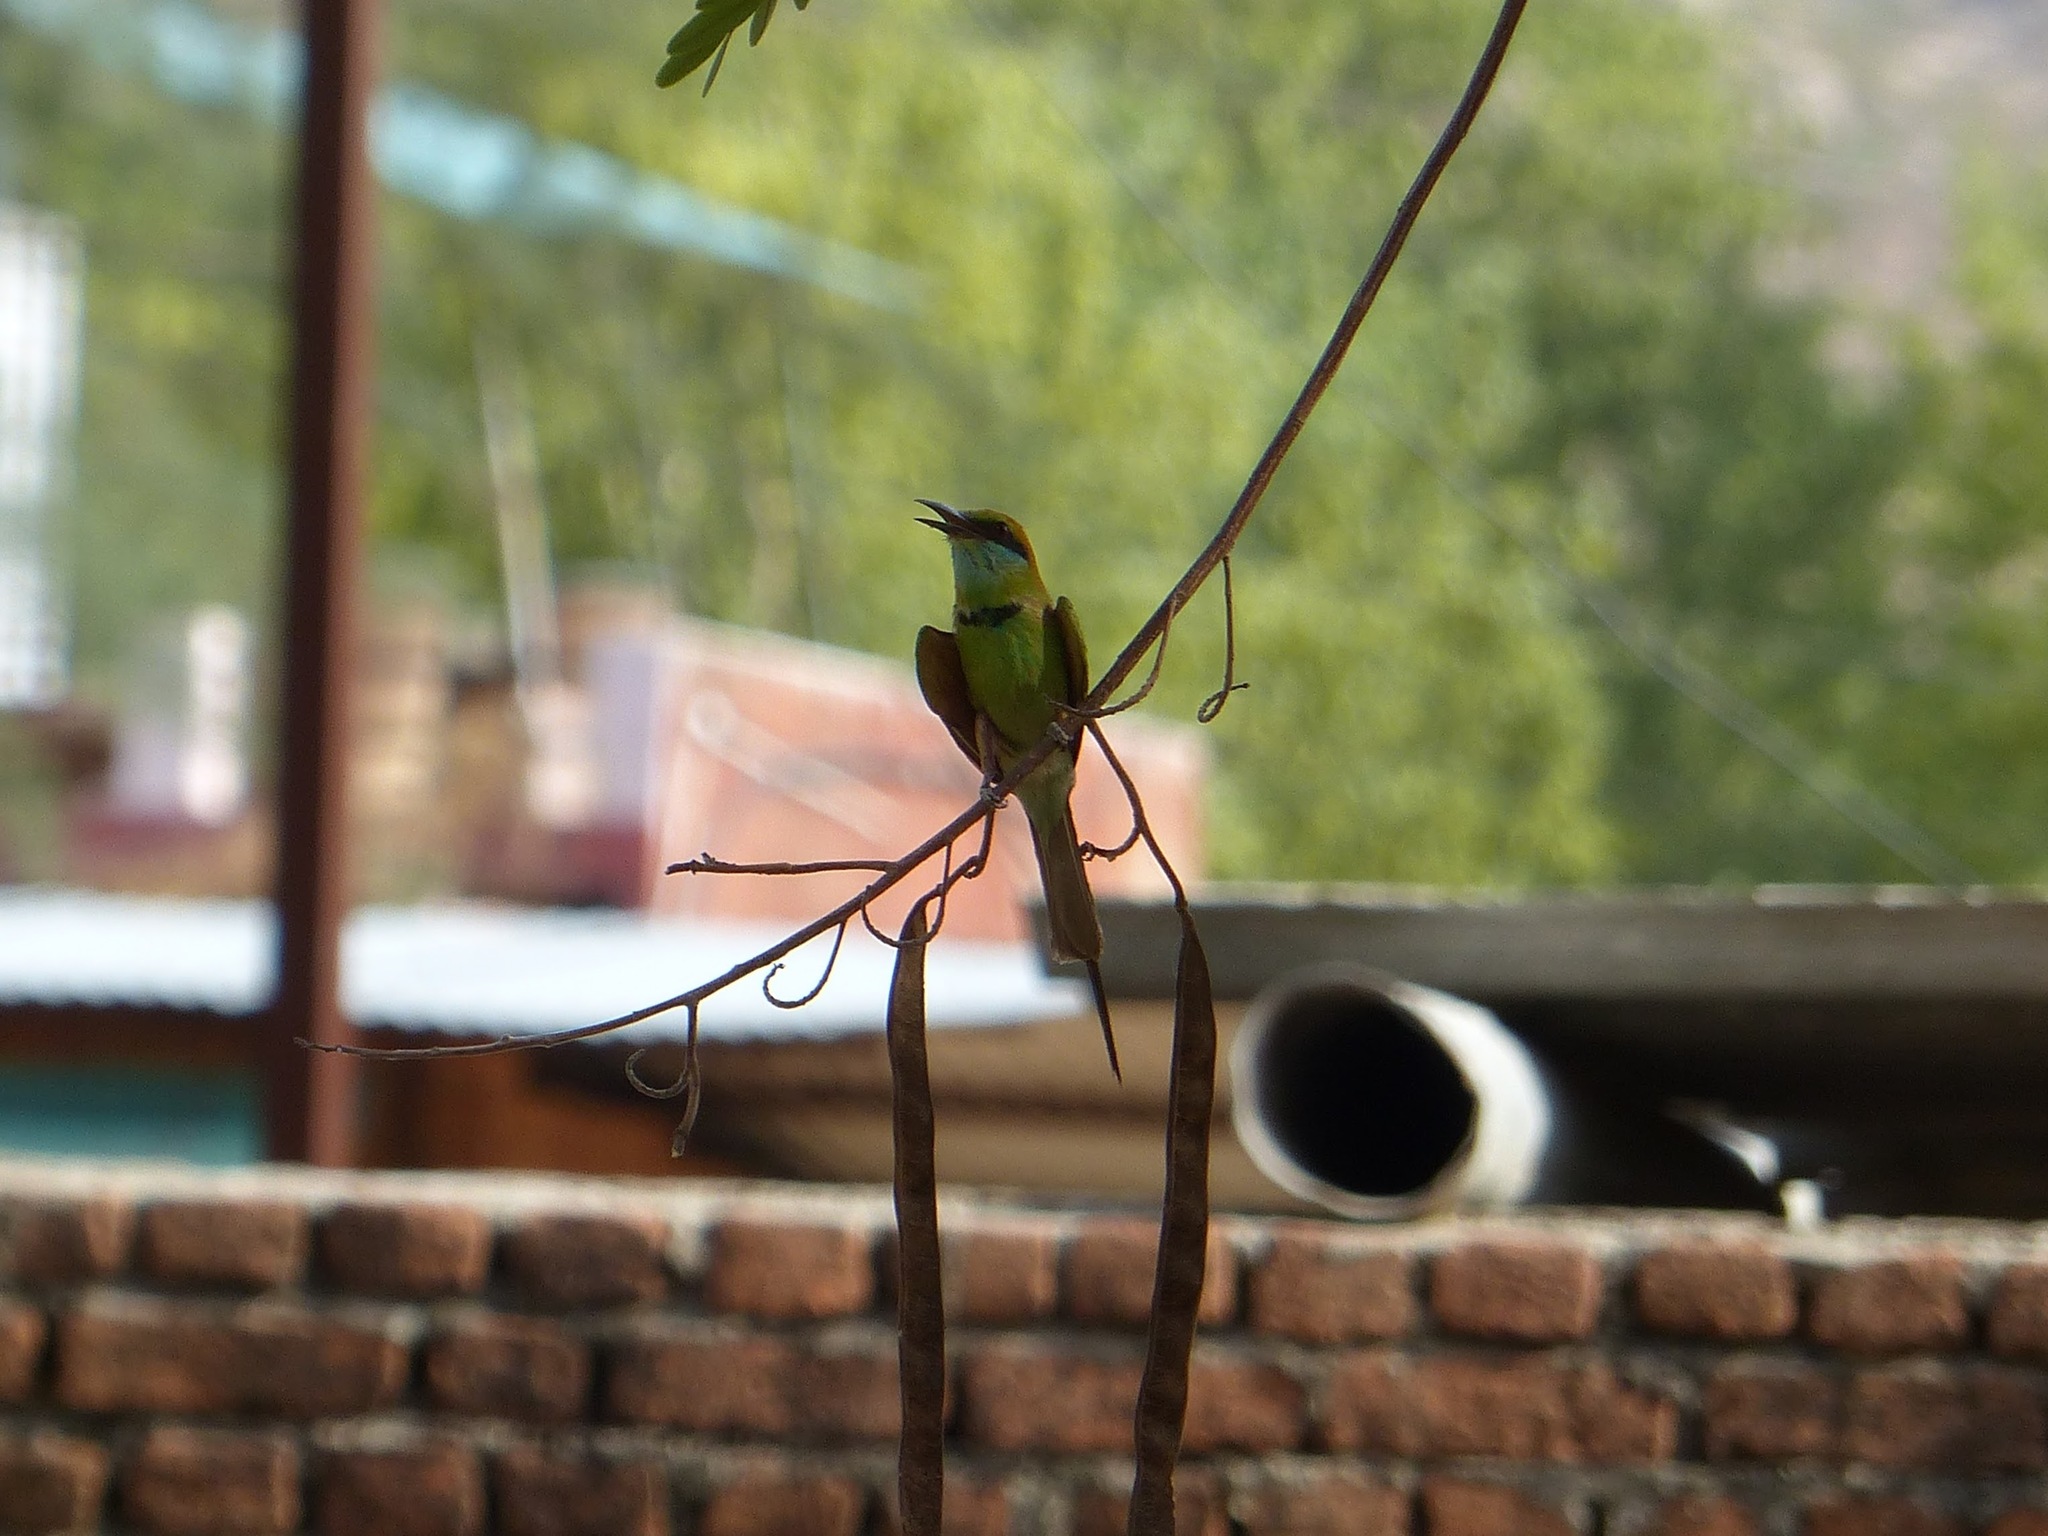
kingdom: Animalia
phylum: Chordata
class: Aves
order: Coraciiformes
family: Meropidae
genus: Merops
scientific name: Merops orientalis
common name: Green bee-eater
